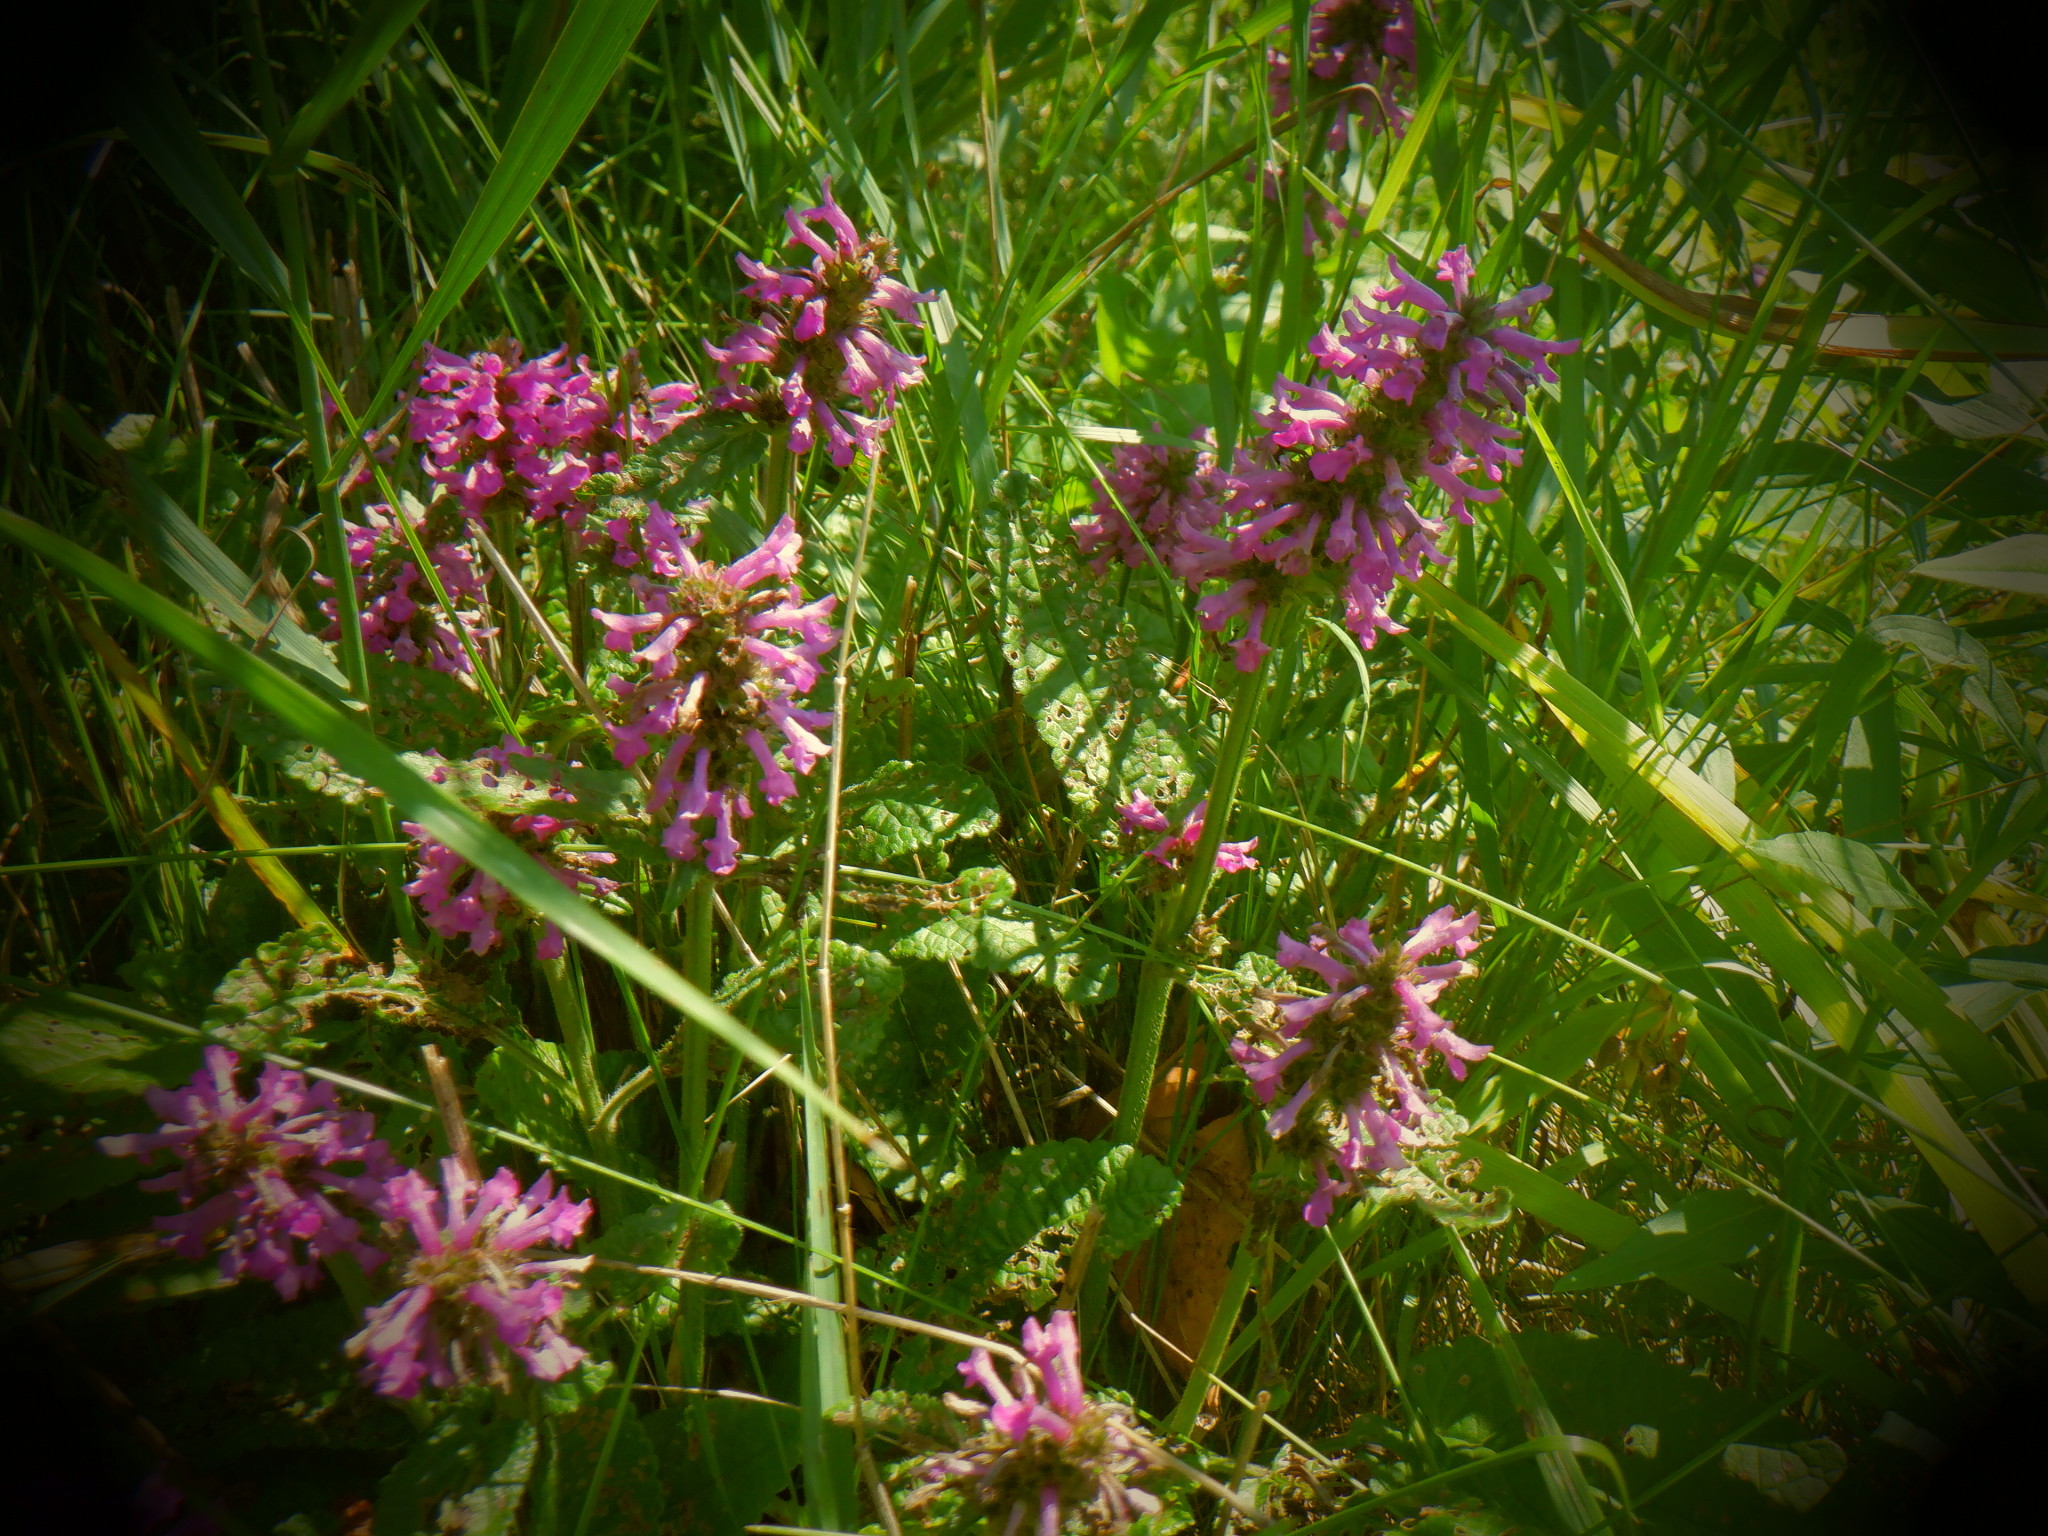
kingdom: Plantae
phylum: Tracheophyta
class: Magnoliopsida
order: Lamiales
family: Lamiaceae
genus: Betonica
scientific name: Betonica officinalis
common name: Bishop's-wort
